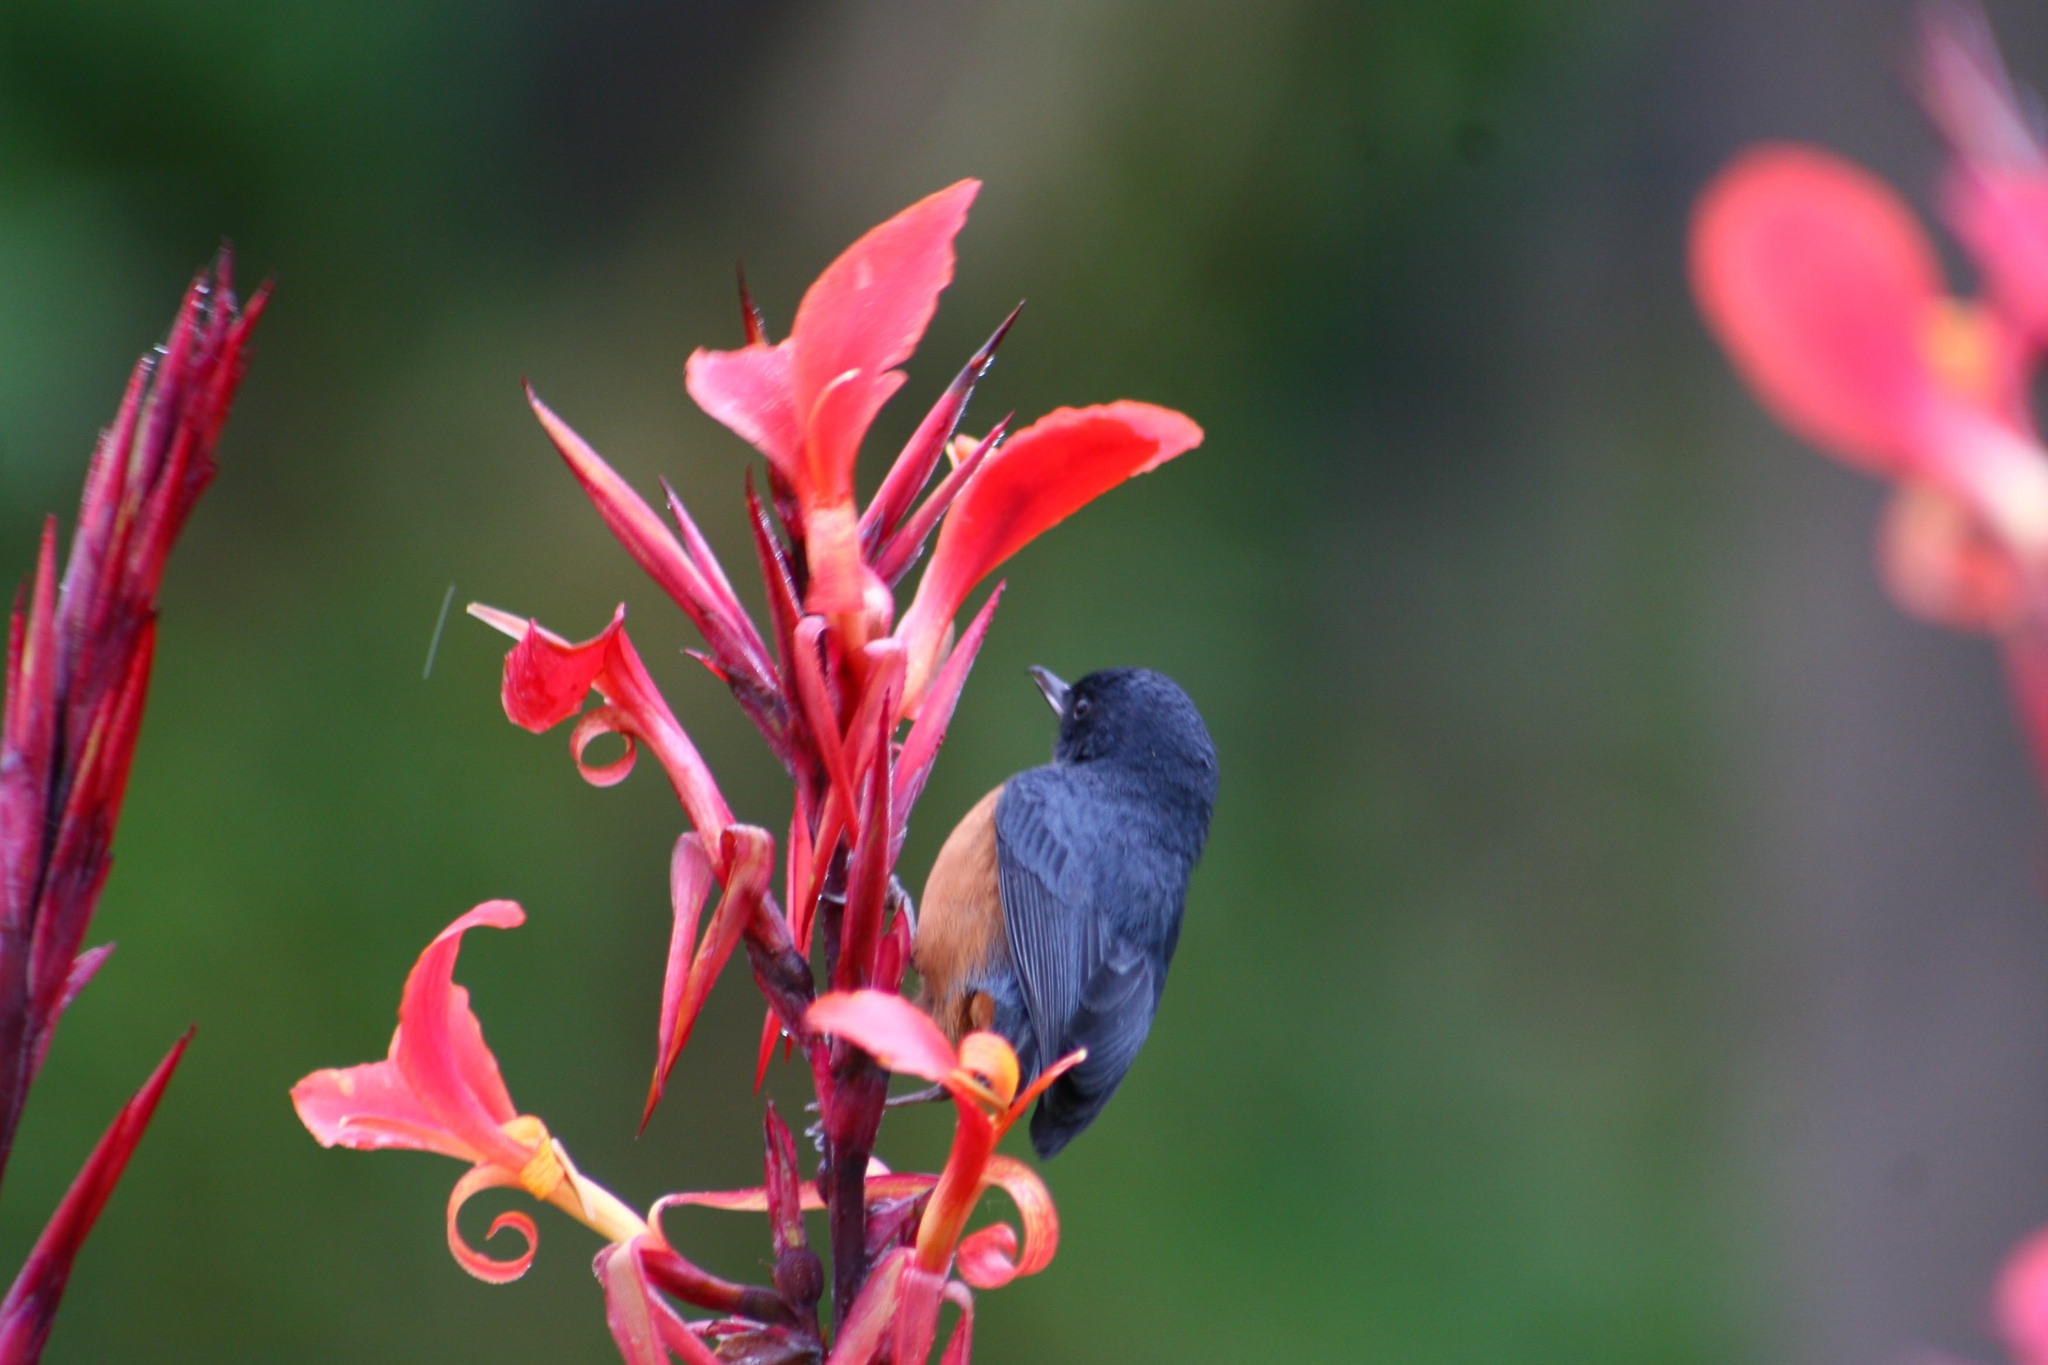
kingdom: Animalia
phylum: Chordata
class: Aves
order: Passeriformes
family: Thraupidae
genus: Diglossa
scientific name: Diglossa baritula
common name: Cinnamon-bellied flowerpiercer
